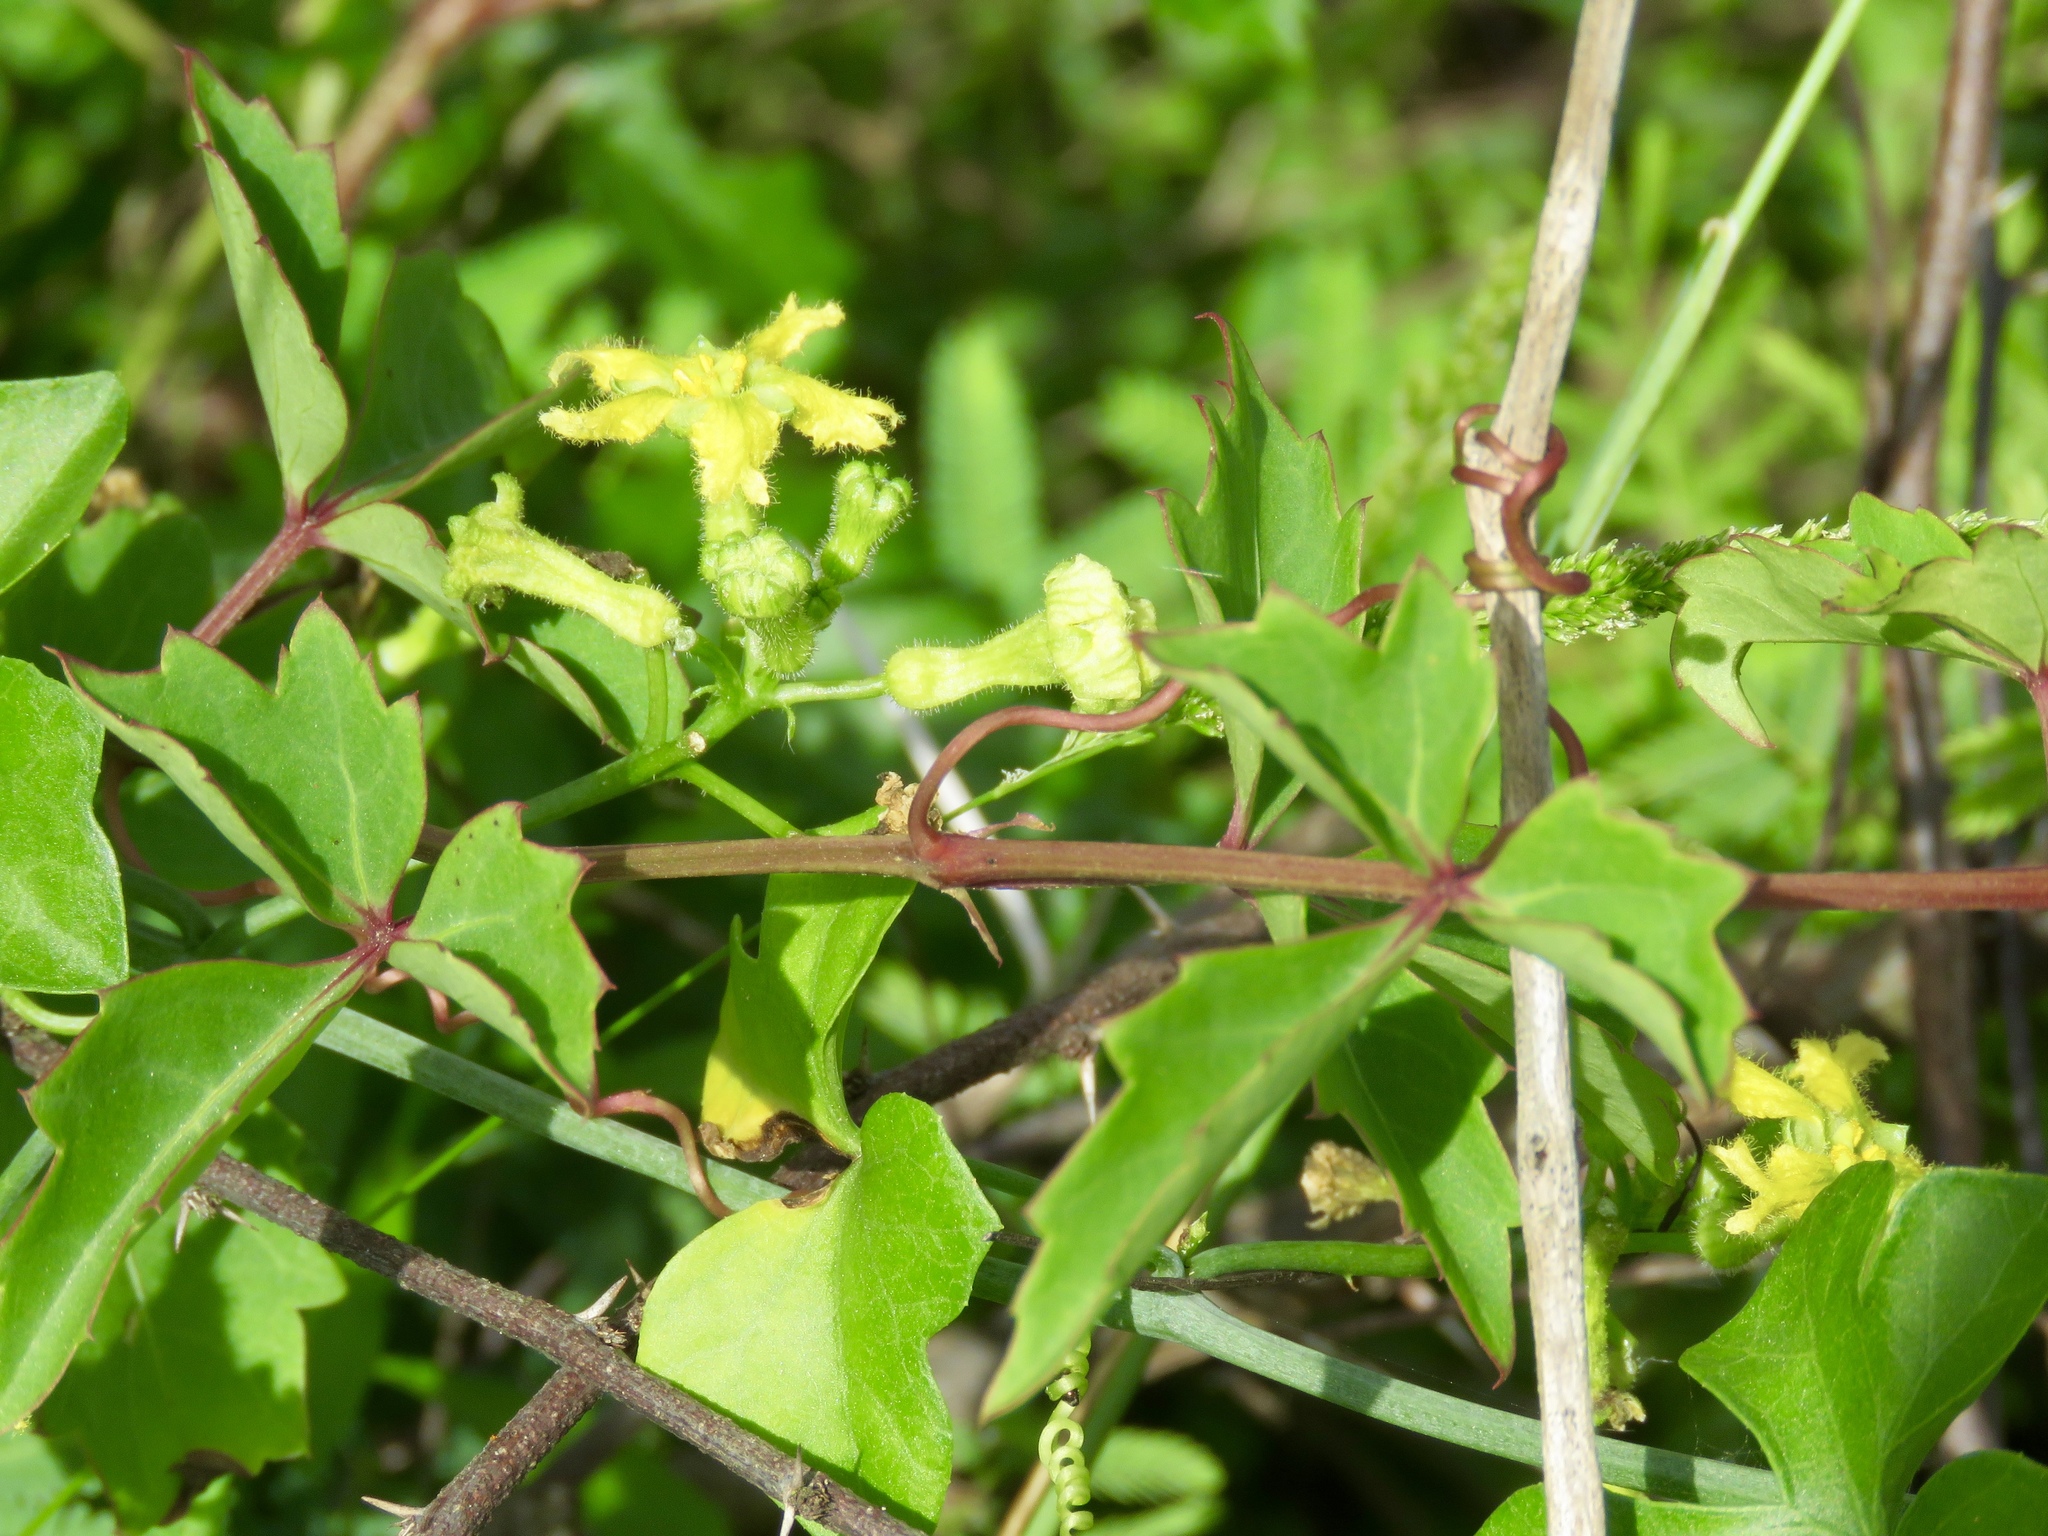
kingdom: Plantae
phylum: Tracheophyta
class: Magnoliopsida
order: Cucurbitales
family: Cucurbitaceae
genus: Ibervillea
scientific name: Ibervillea lindheimeri
